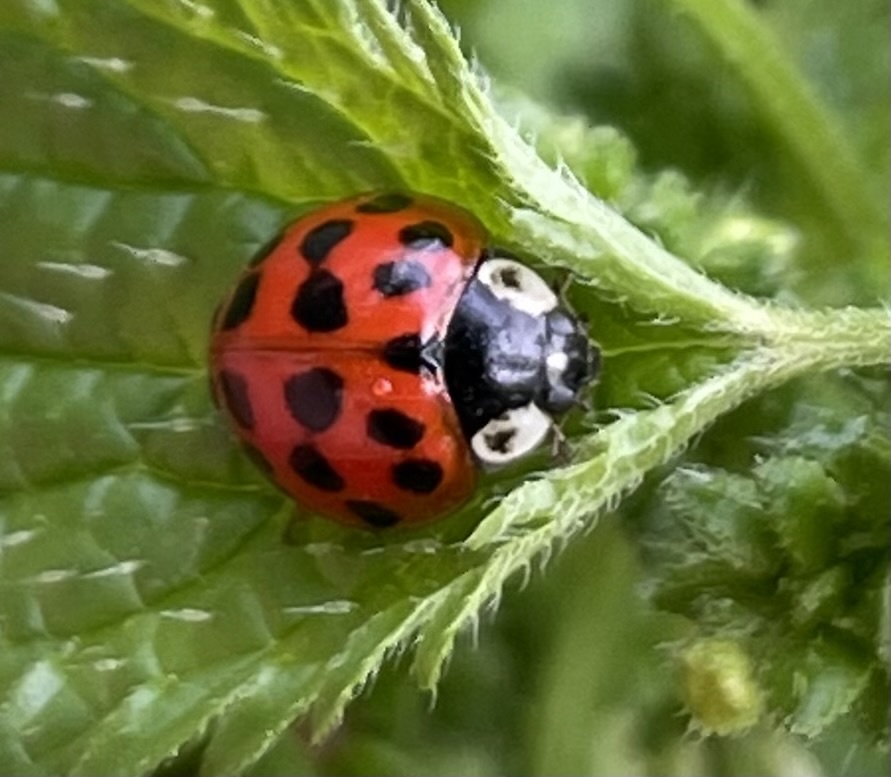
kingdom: Animalia
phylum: Arthropoda
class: Insecta
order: Coleoptera
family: Coccinellidae
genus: Harmonia
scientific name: Harmonia axyridis
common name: Harlequin ladybird
